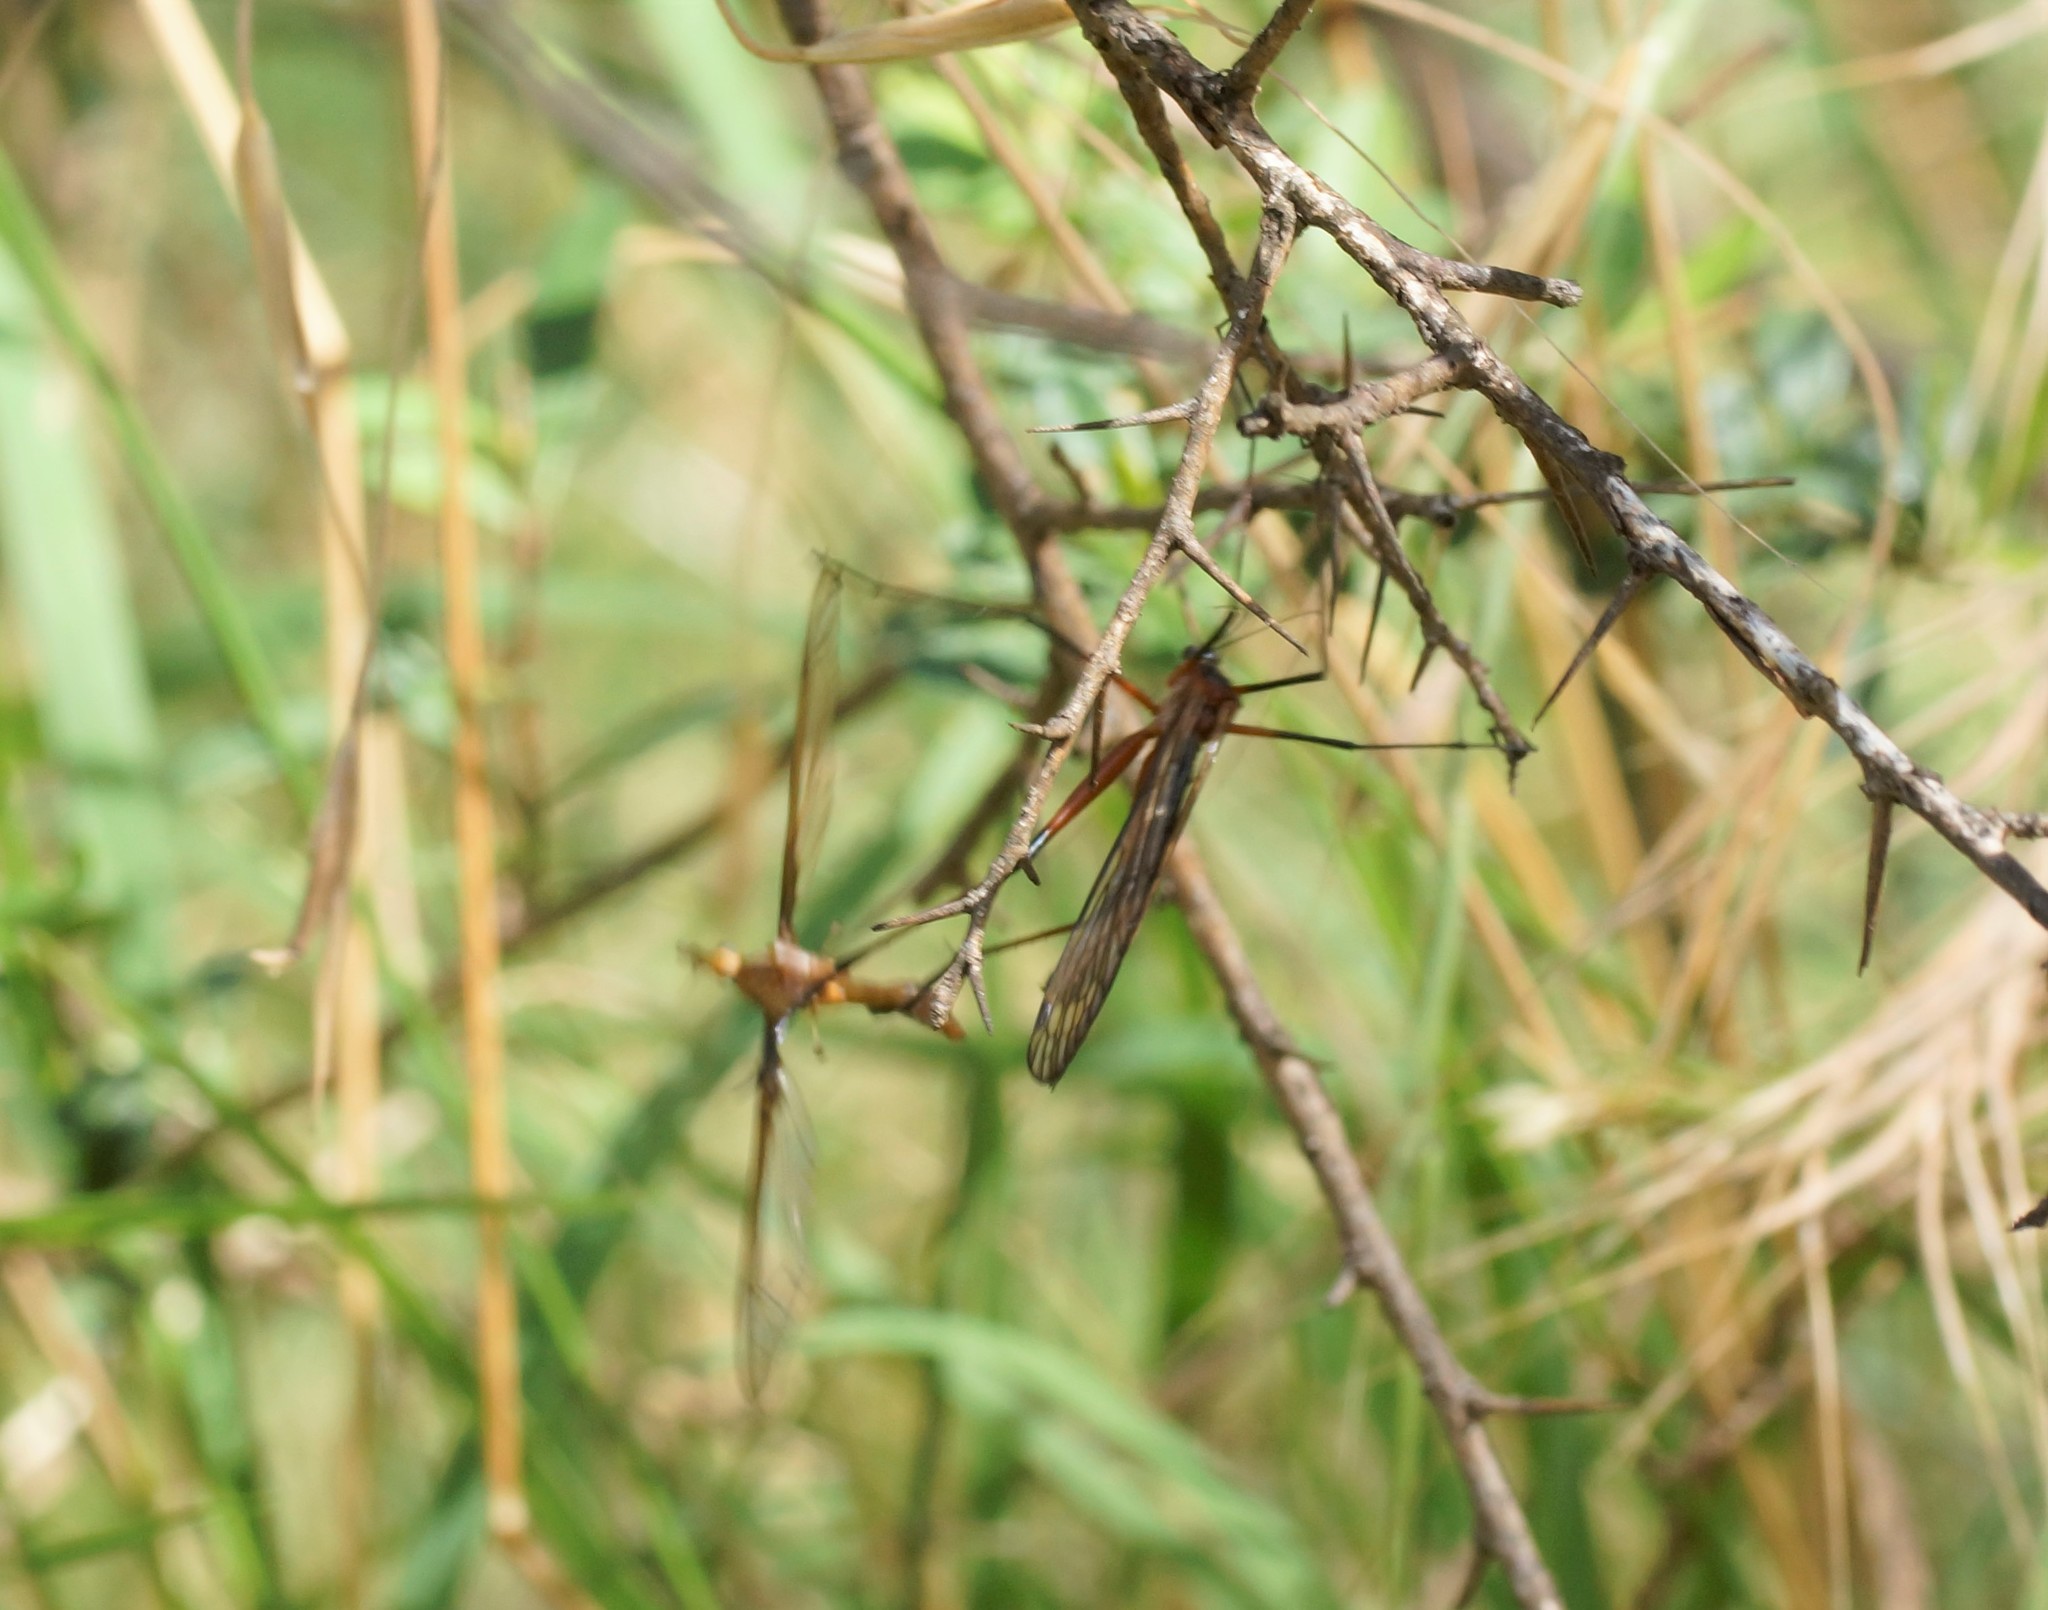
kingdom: Animalia
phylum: Arthropoda
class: Insecta
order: Mecoptera
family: Bittacidae
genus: Harpobittacus
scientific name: Harpobittacus australis
